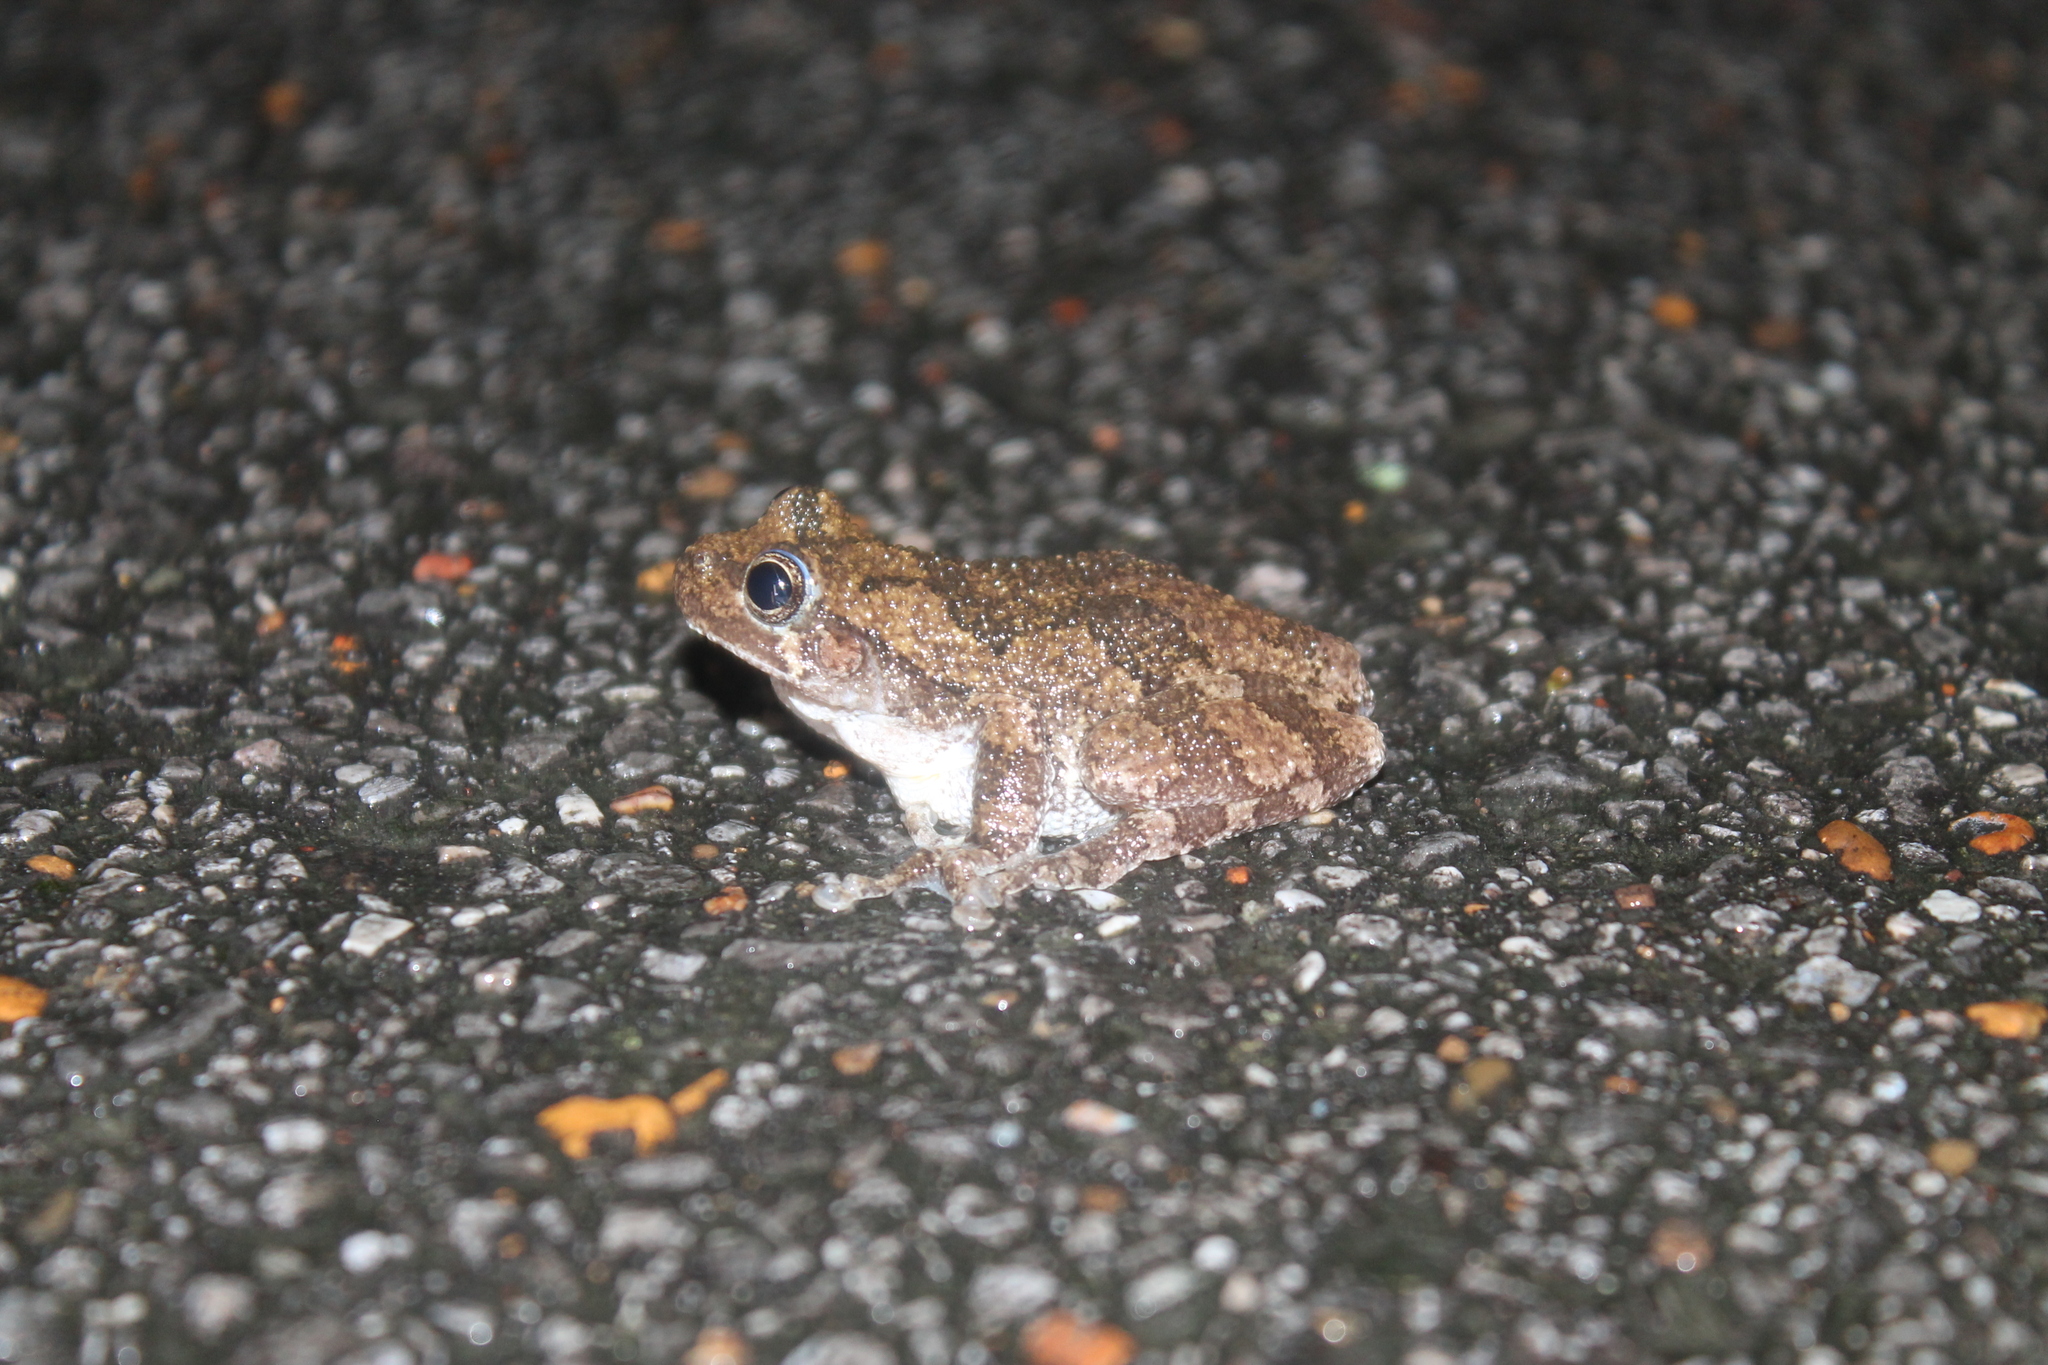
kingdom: Animalia
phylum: Chordata
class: Amphibia
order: Anura
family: Hylidae
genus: Dryophytes
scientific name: Dryophytes chrysoscelis
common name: Cope's gray treefrog
